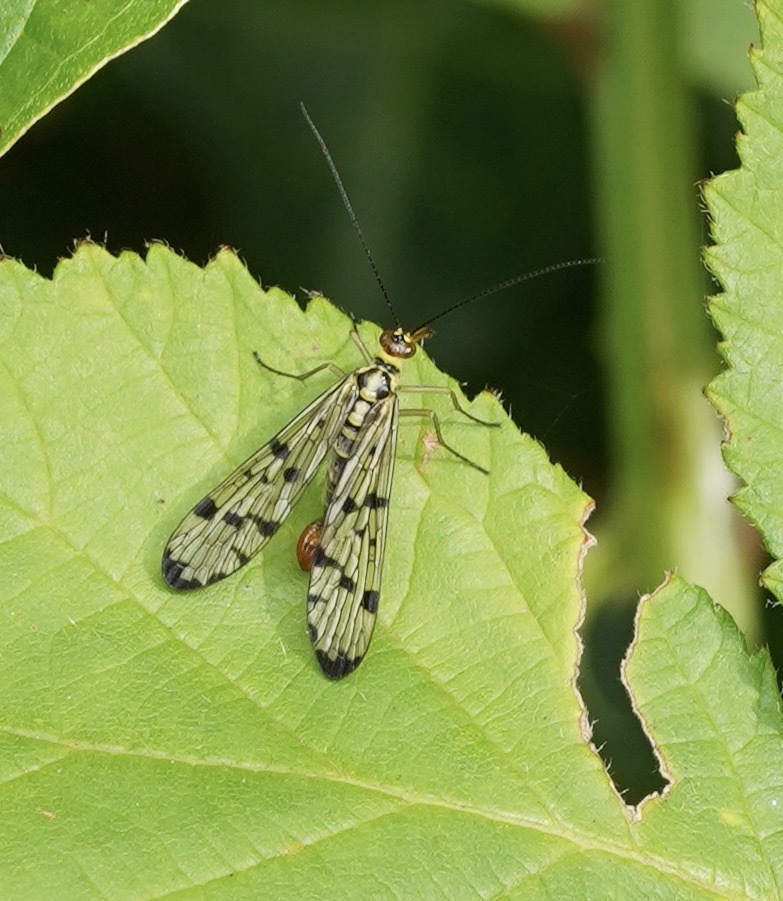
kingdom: Animalia
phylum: Arthropoda
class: Insecta
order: Mecoptera
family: Panorpidae
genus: Panorpa
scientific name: Panorpa
